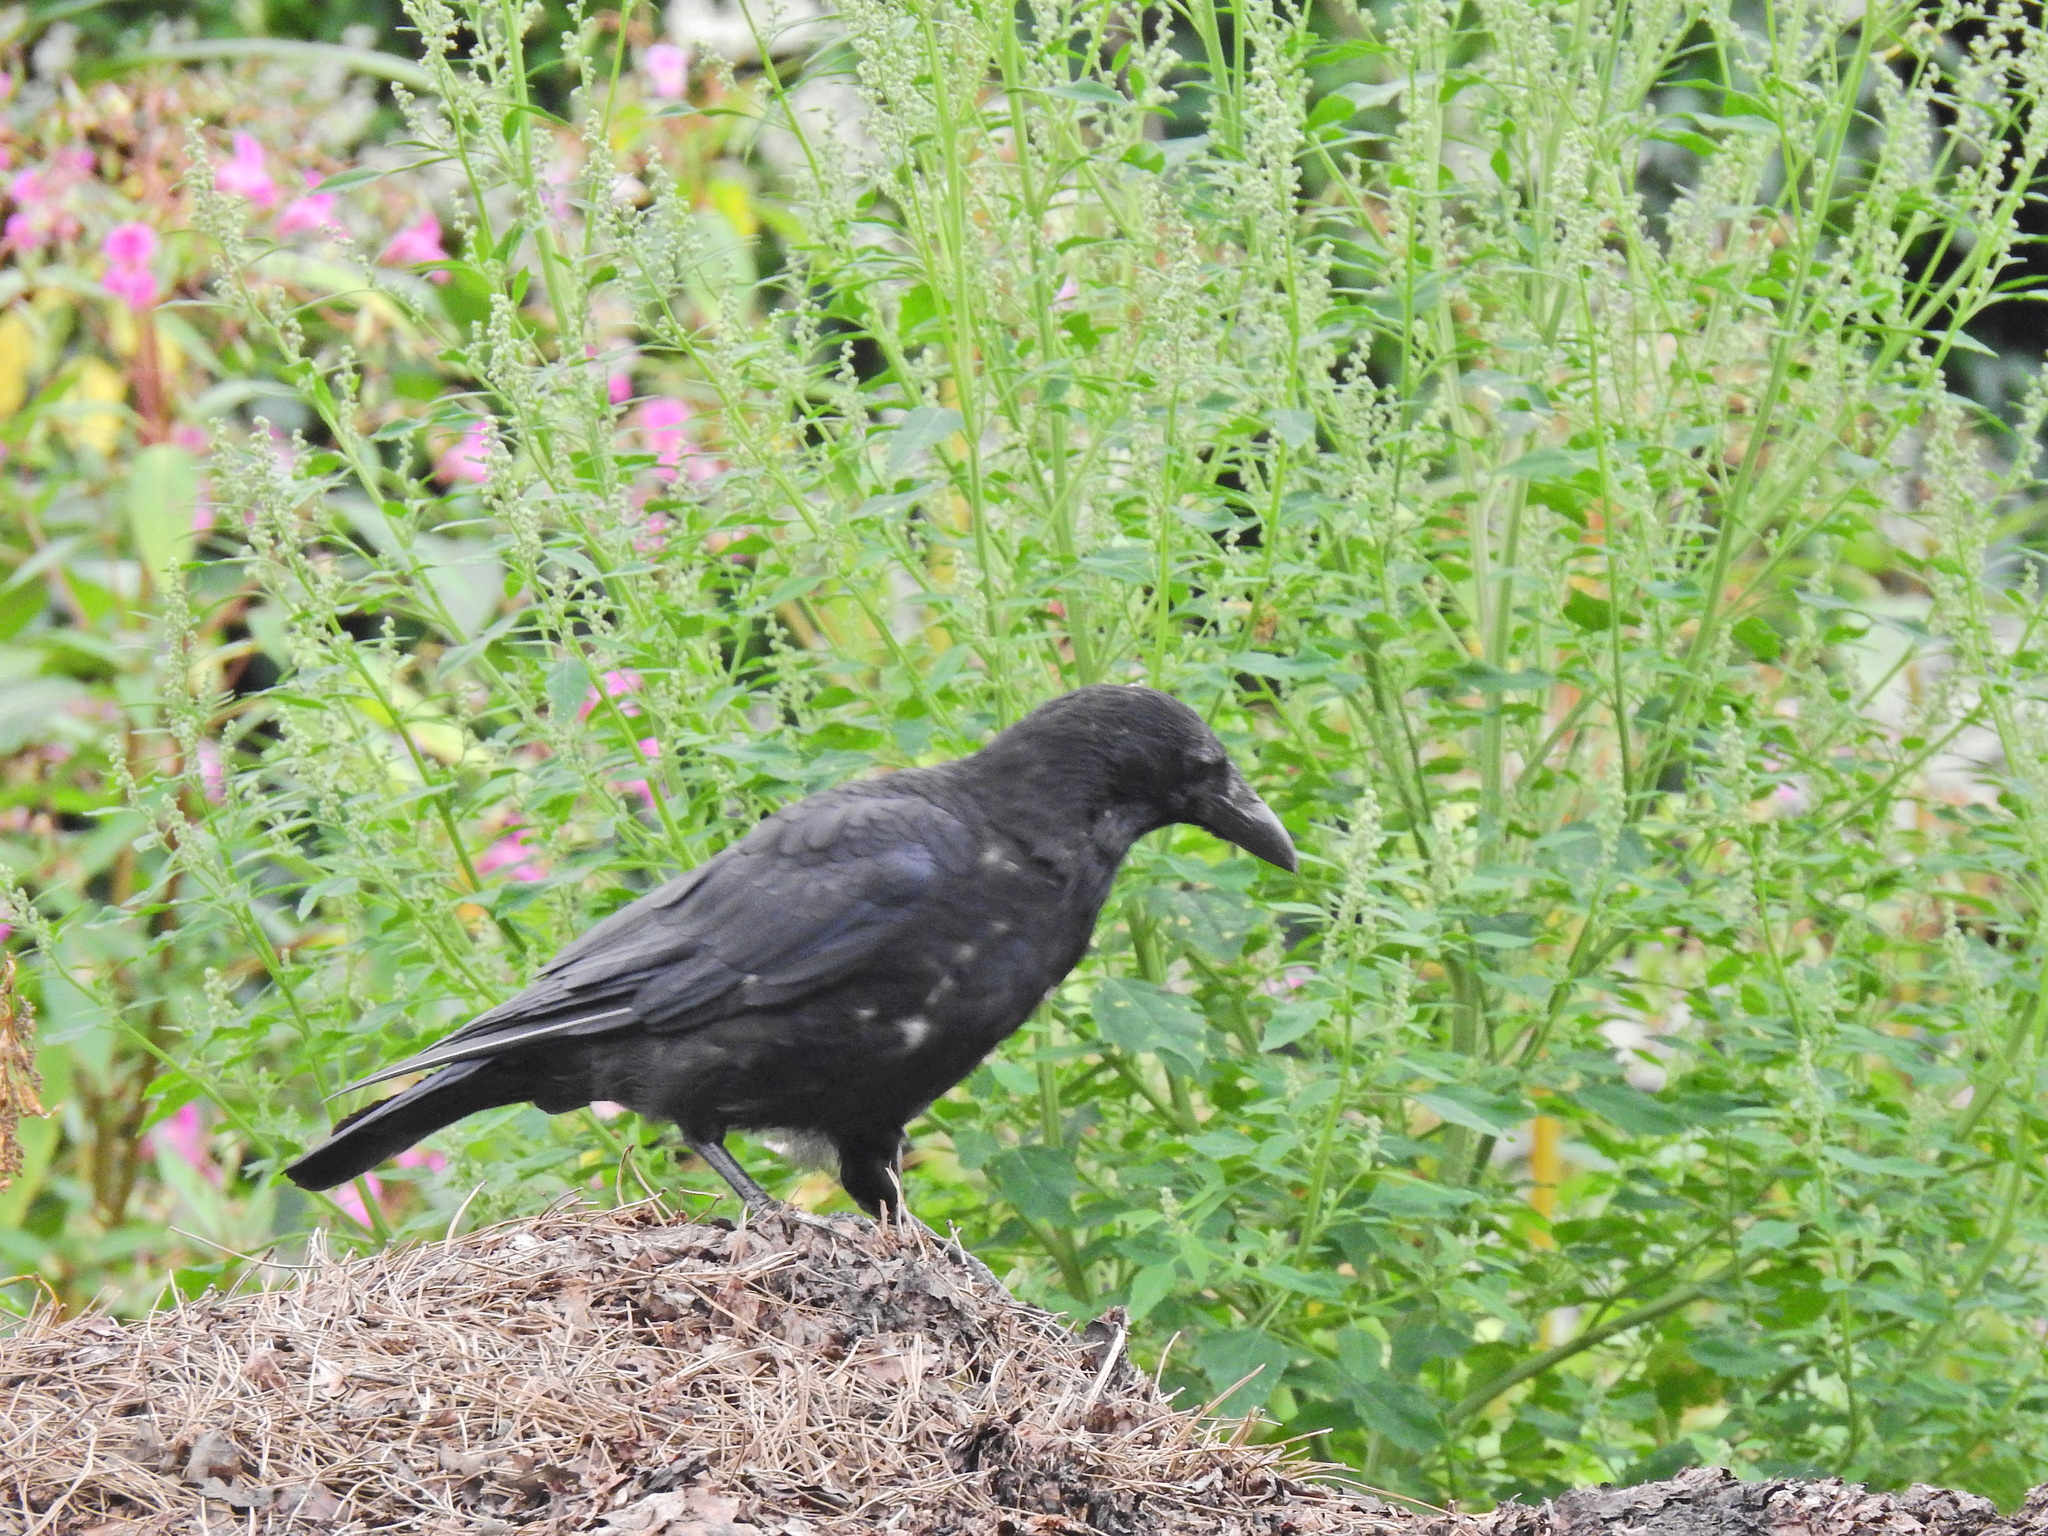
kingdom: Animalia
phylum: Chordata
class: Aves
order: Passeriformes
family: Corvidae
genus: Corvus
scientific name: Corvus corone
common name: Carrion crow
